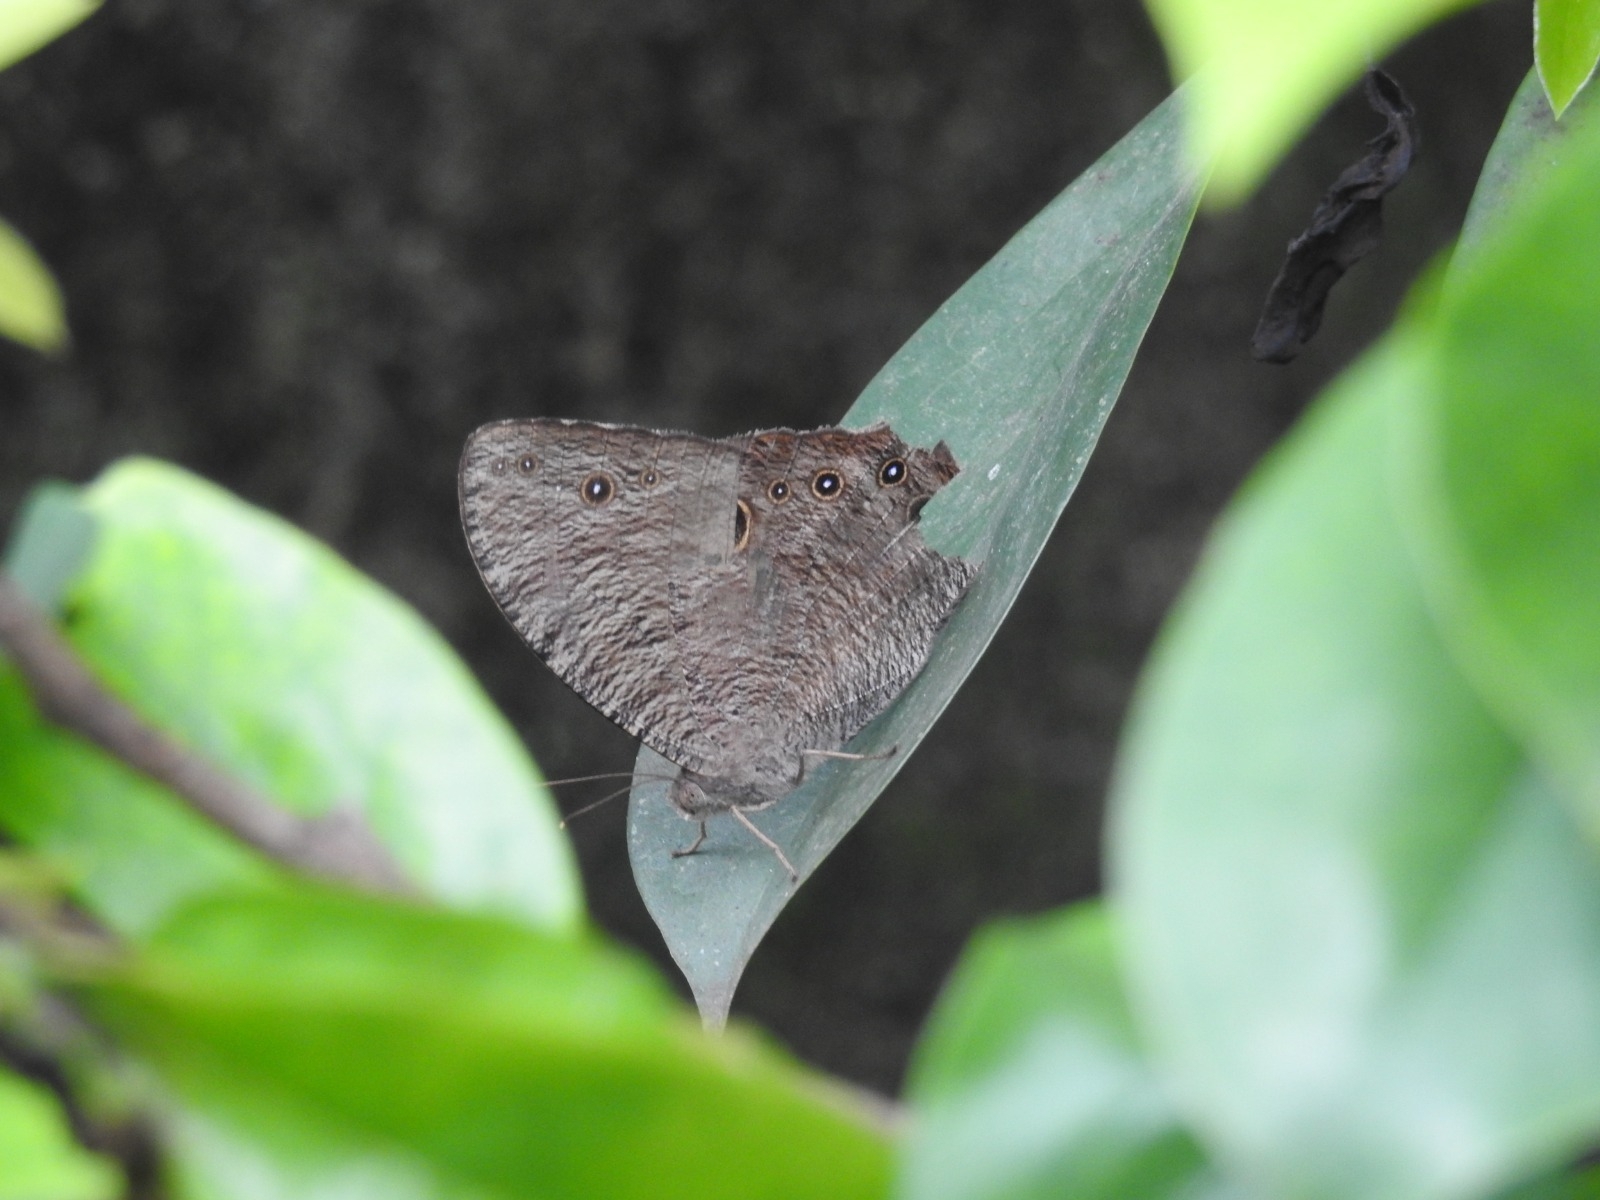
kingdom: Animalia
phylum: Arthropoda
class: Insecta
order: Lepidoptera
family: Nymphalidae
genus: Melanitis
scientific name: Melanitis leda
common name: Twilight brown
